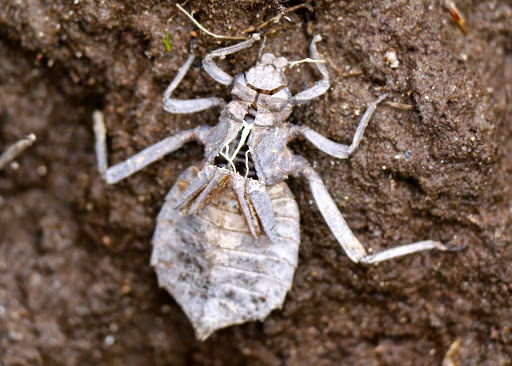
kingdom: Animalia
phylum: Arthropoda
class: Insecta
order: Odonata
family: Gomphidae
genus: Hagenius
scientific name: Hagenius brevistylus
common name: Dragonhunter
